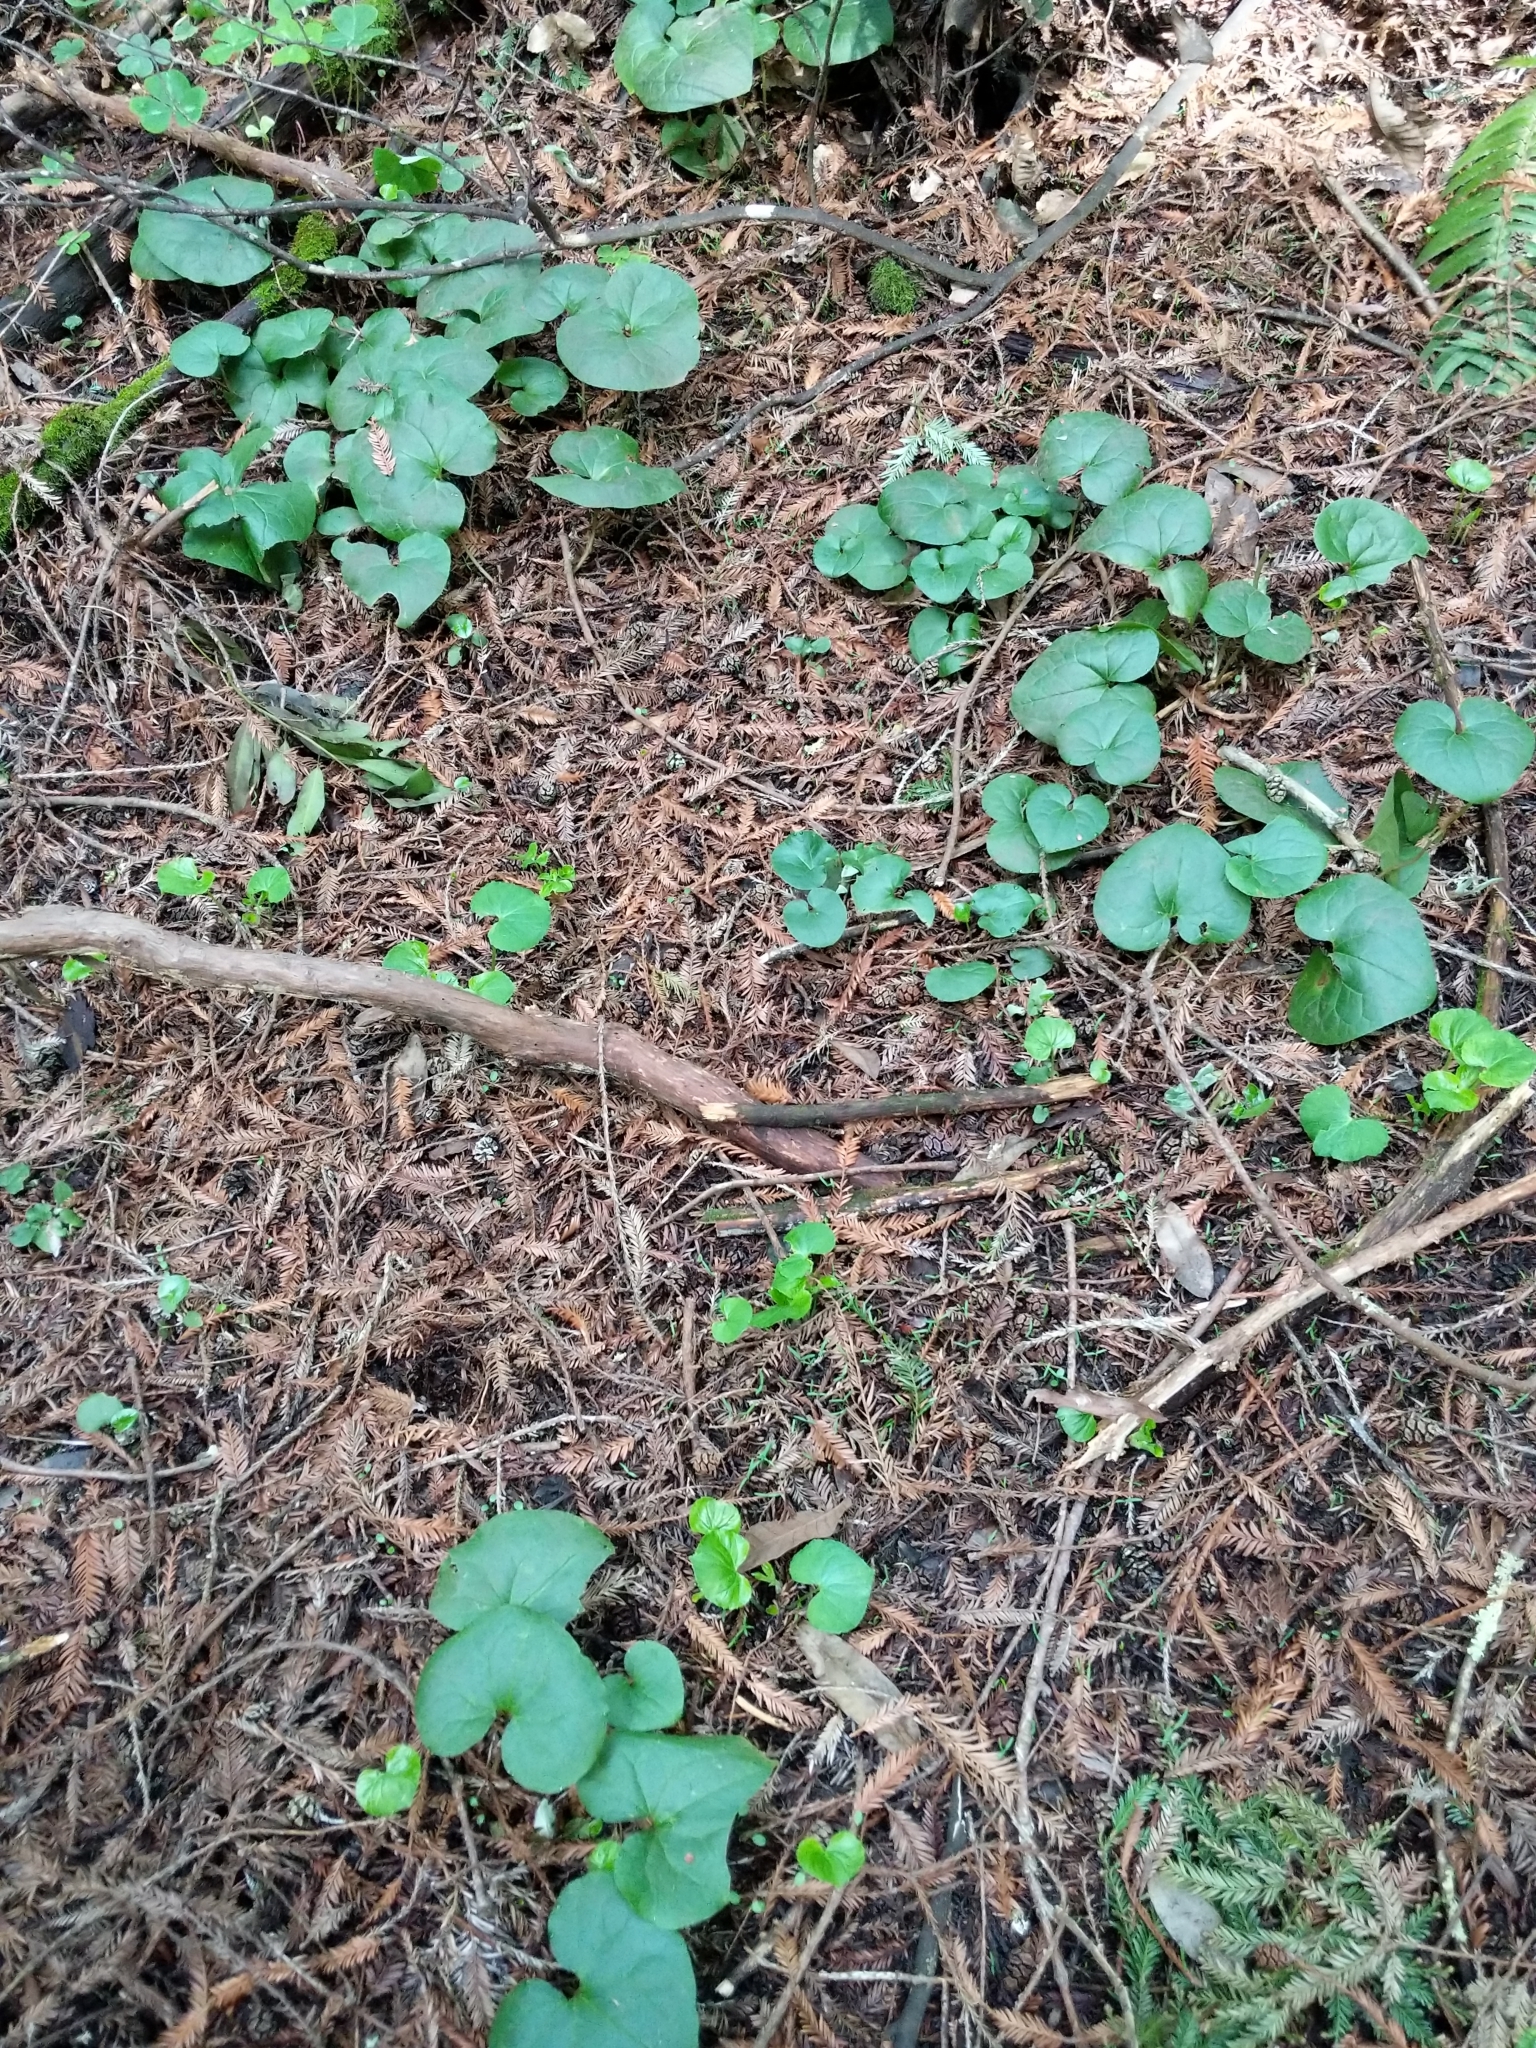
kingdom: Plantae
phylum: Tracheophyta
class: Magnoliopsida
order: Piperales
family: Aristolochiaceae
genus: Asarum
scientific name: Asarum caudatum
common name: Wild ginger
